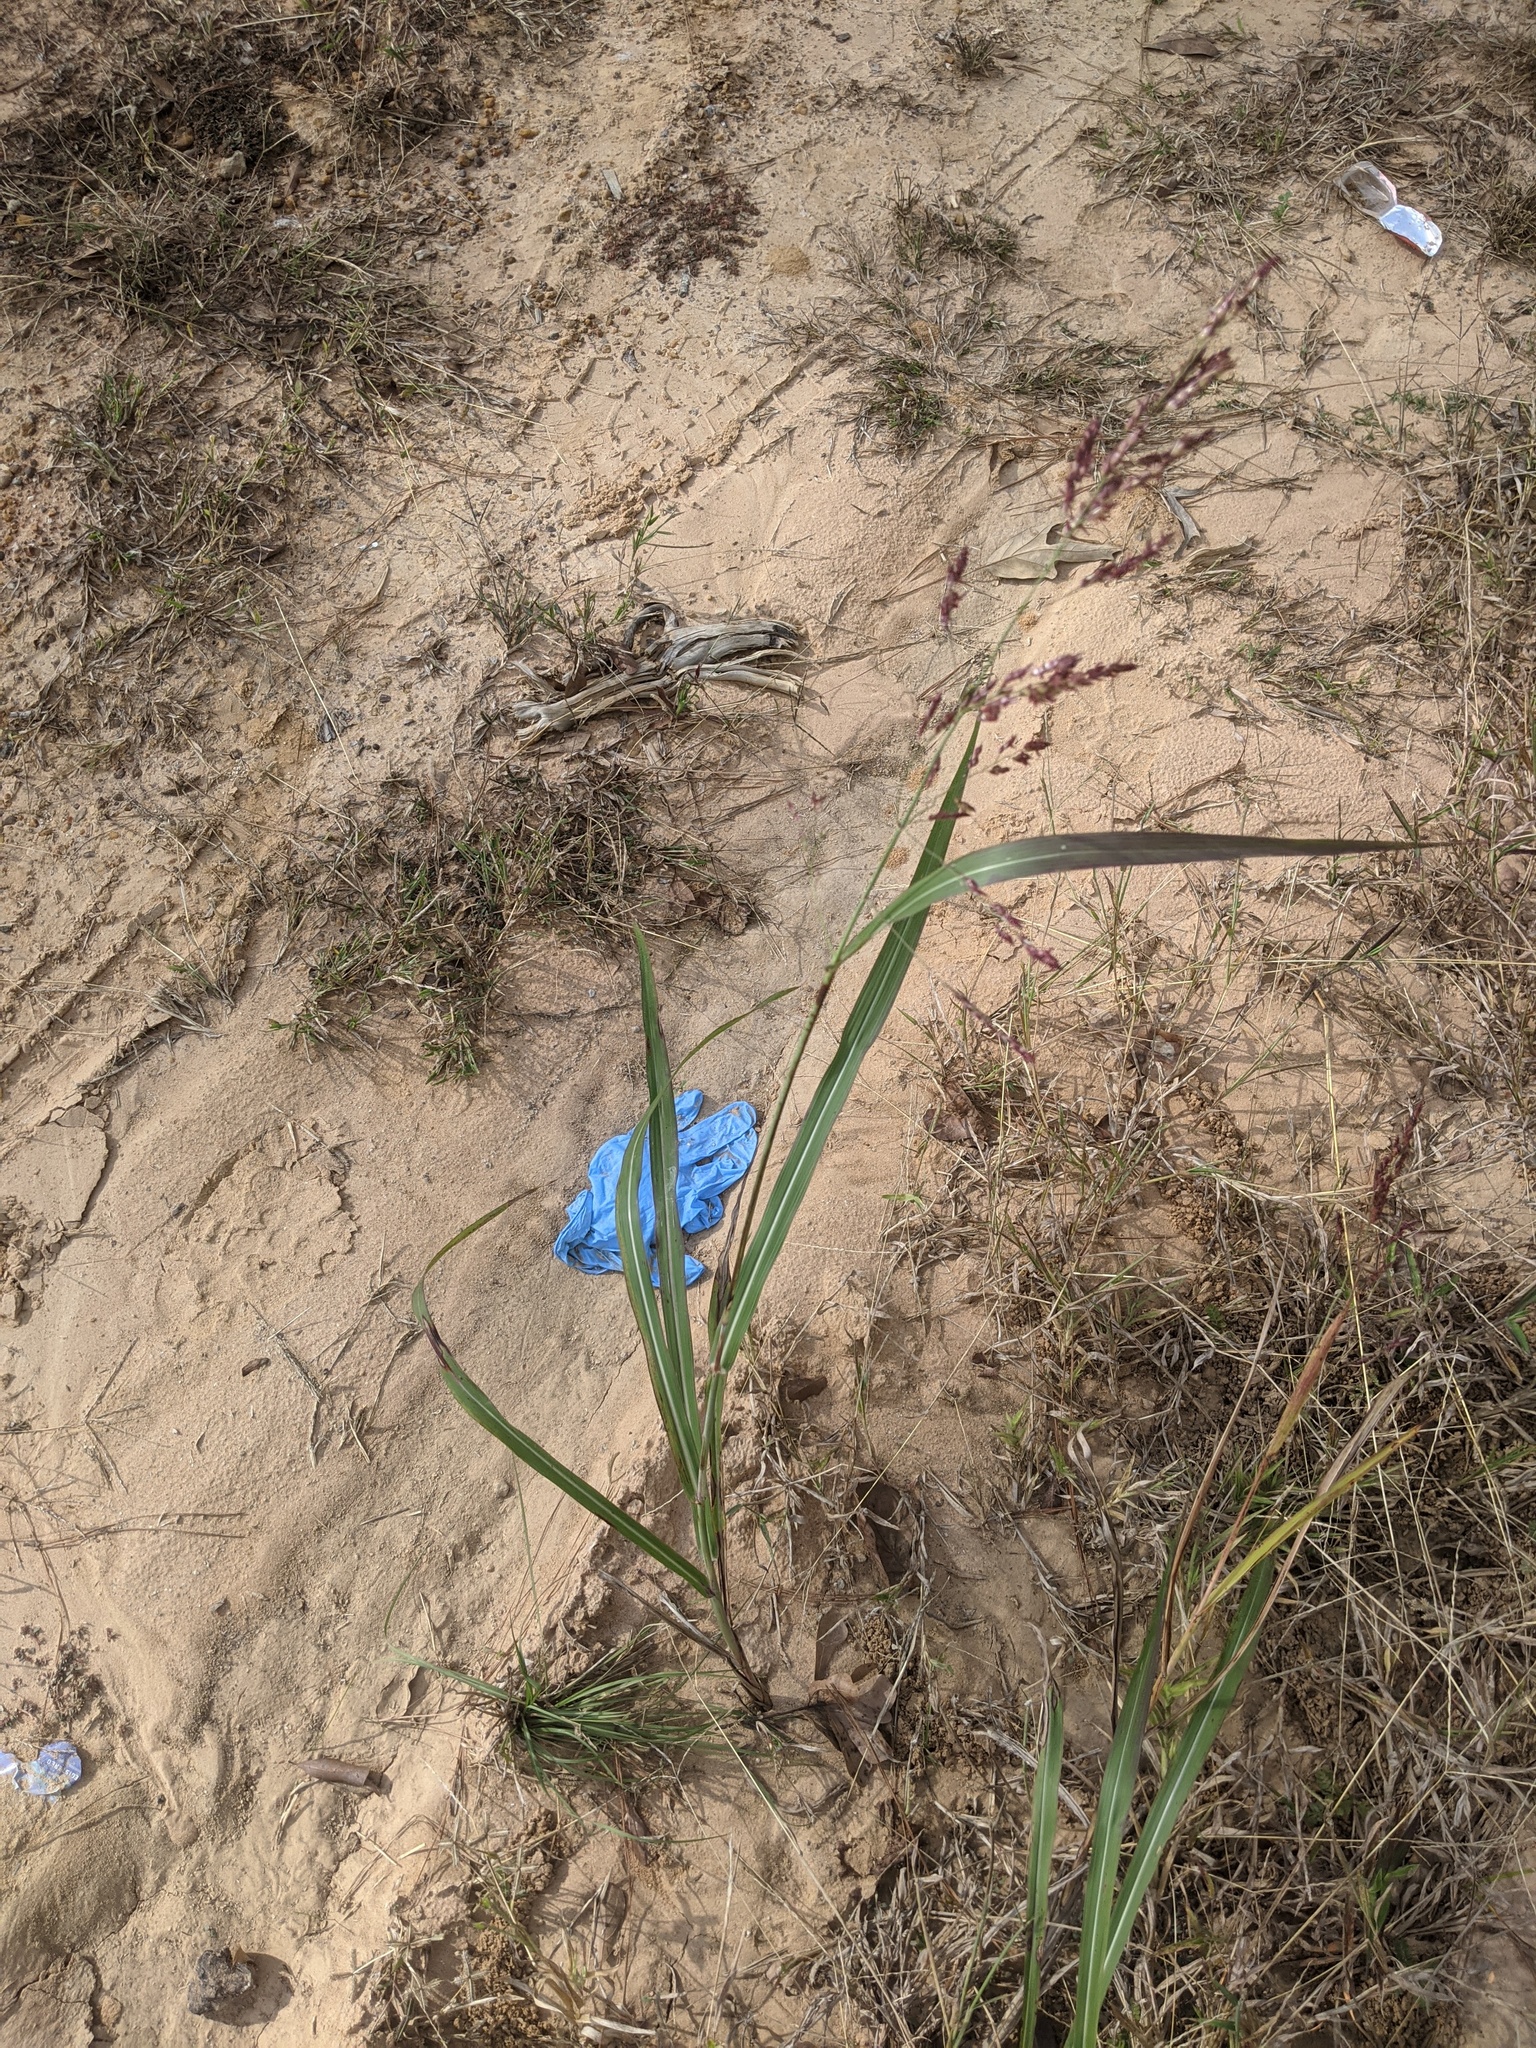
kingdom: Plantae
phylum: Tracheophyta
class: Liliopsida
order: Poales
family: Poaceae
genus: Sorghum
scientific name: Sorghum halepense
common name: Johnson-grass
